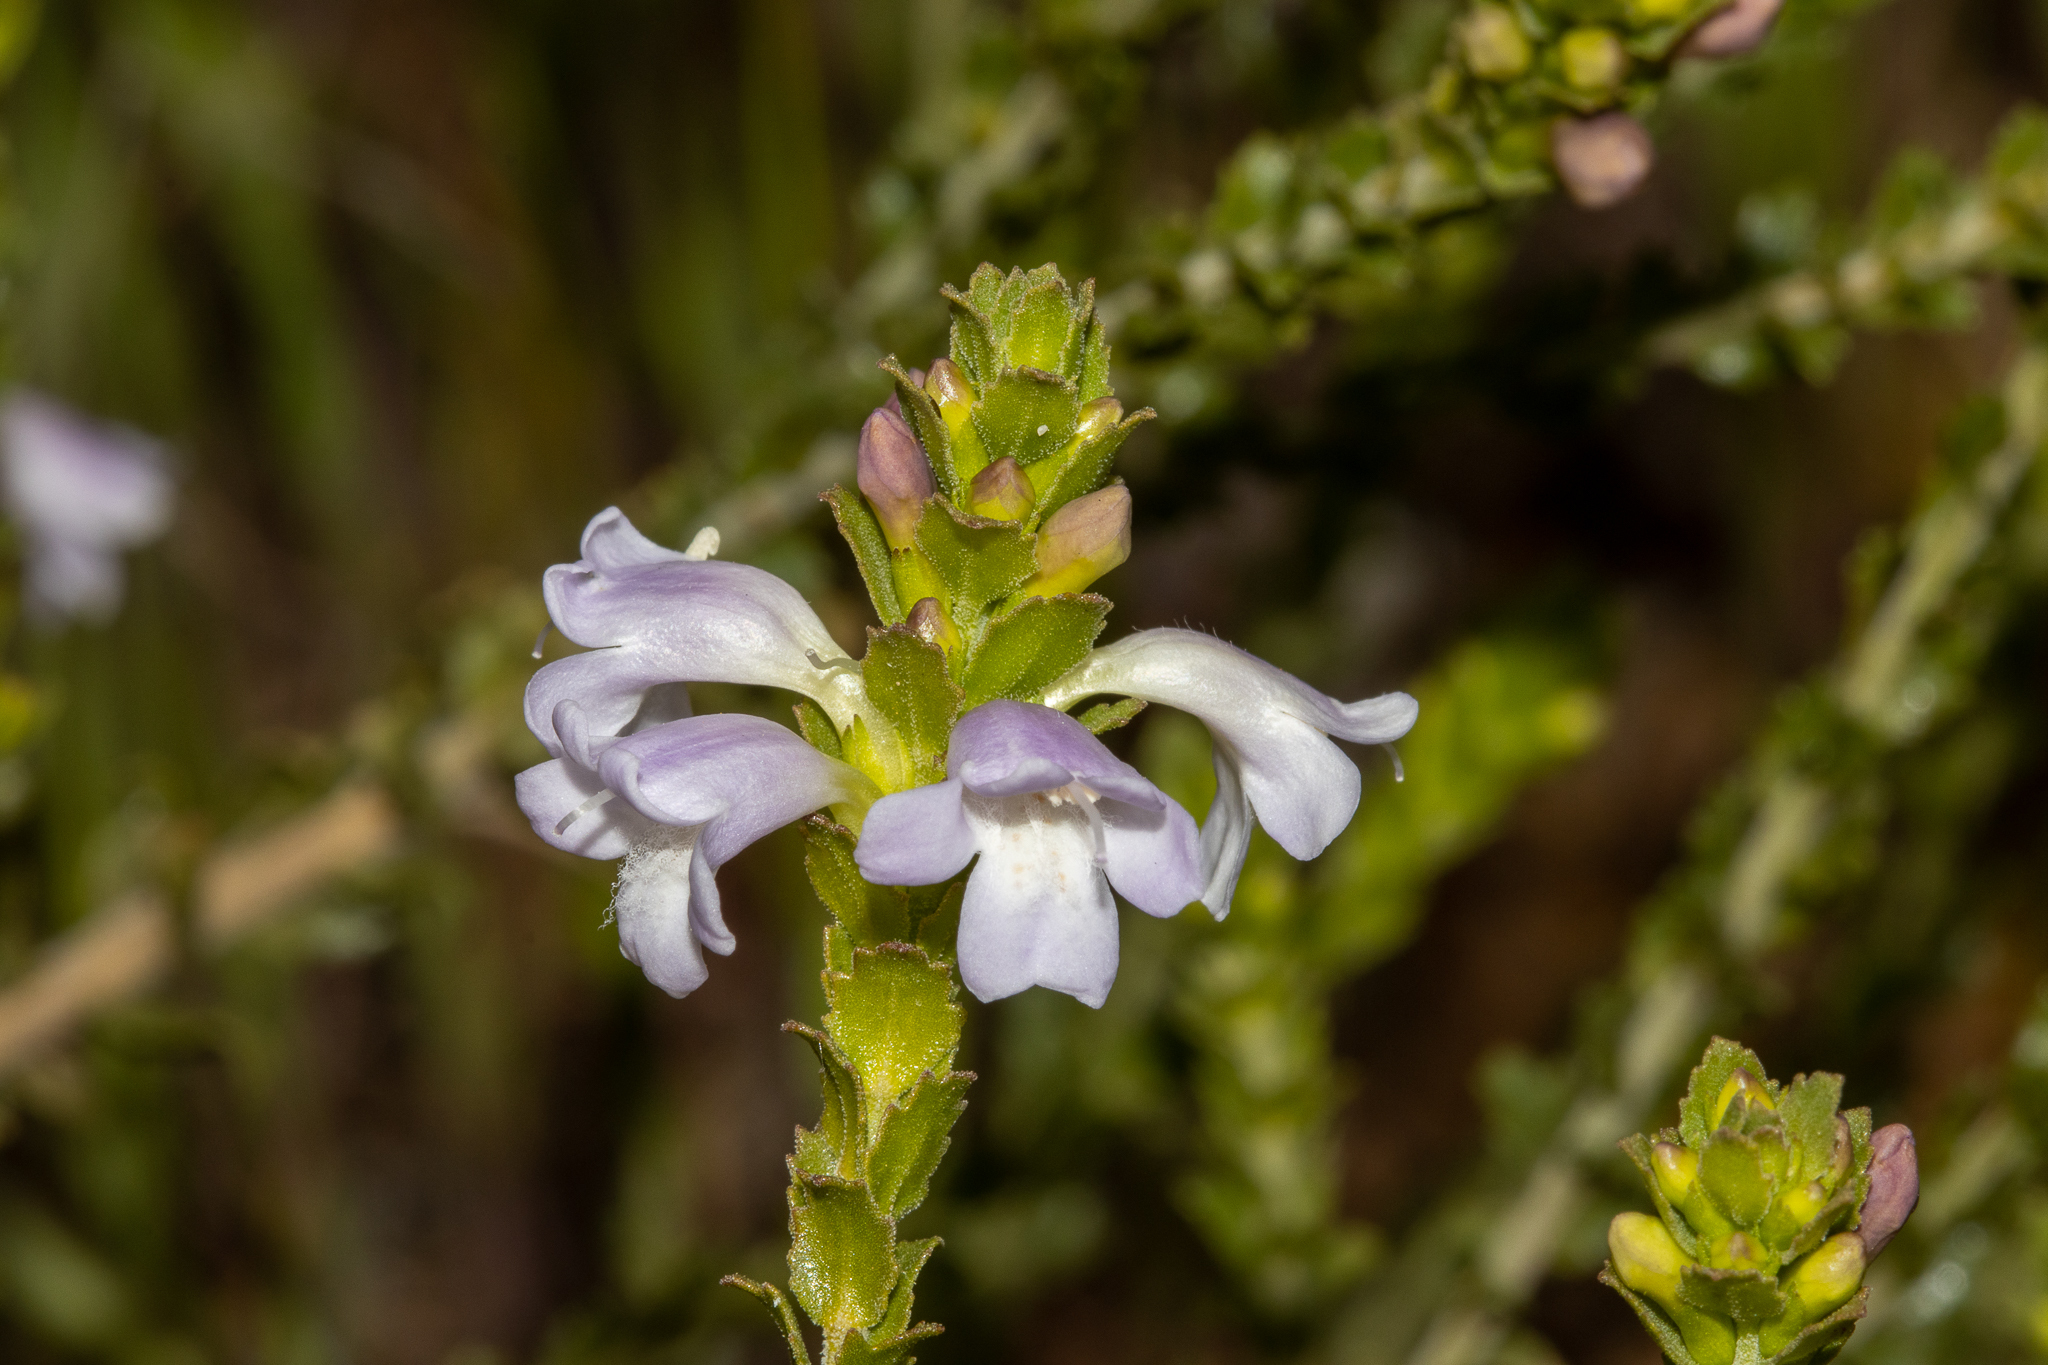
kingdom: Plantae
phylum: Tracheophyta
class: Magnoliopsida
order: Lamiales
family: Scrophulariaceae
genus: Eremophila
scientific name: Eremophila lehmanniana
